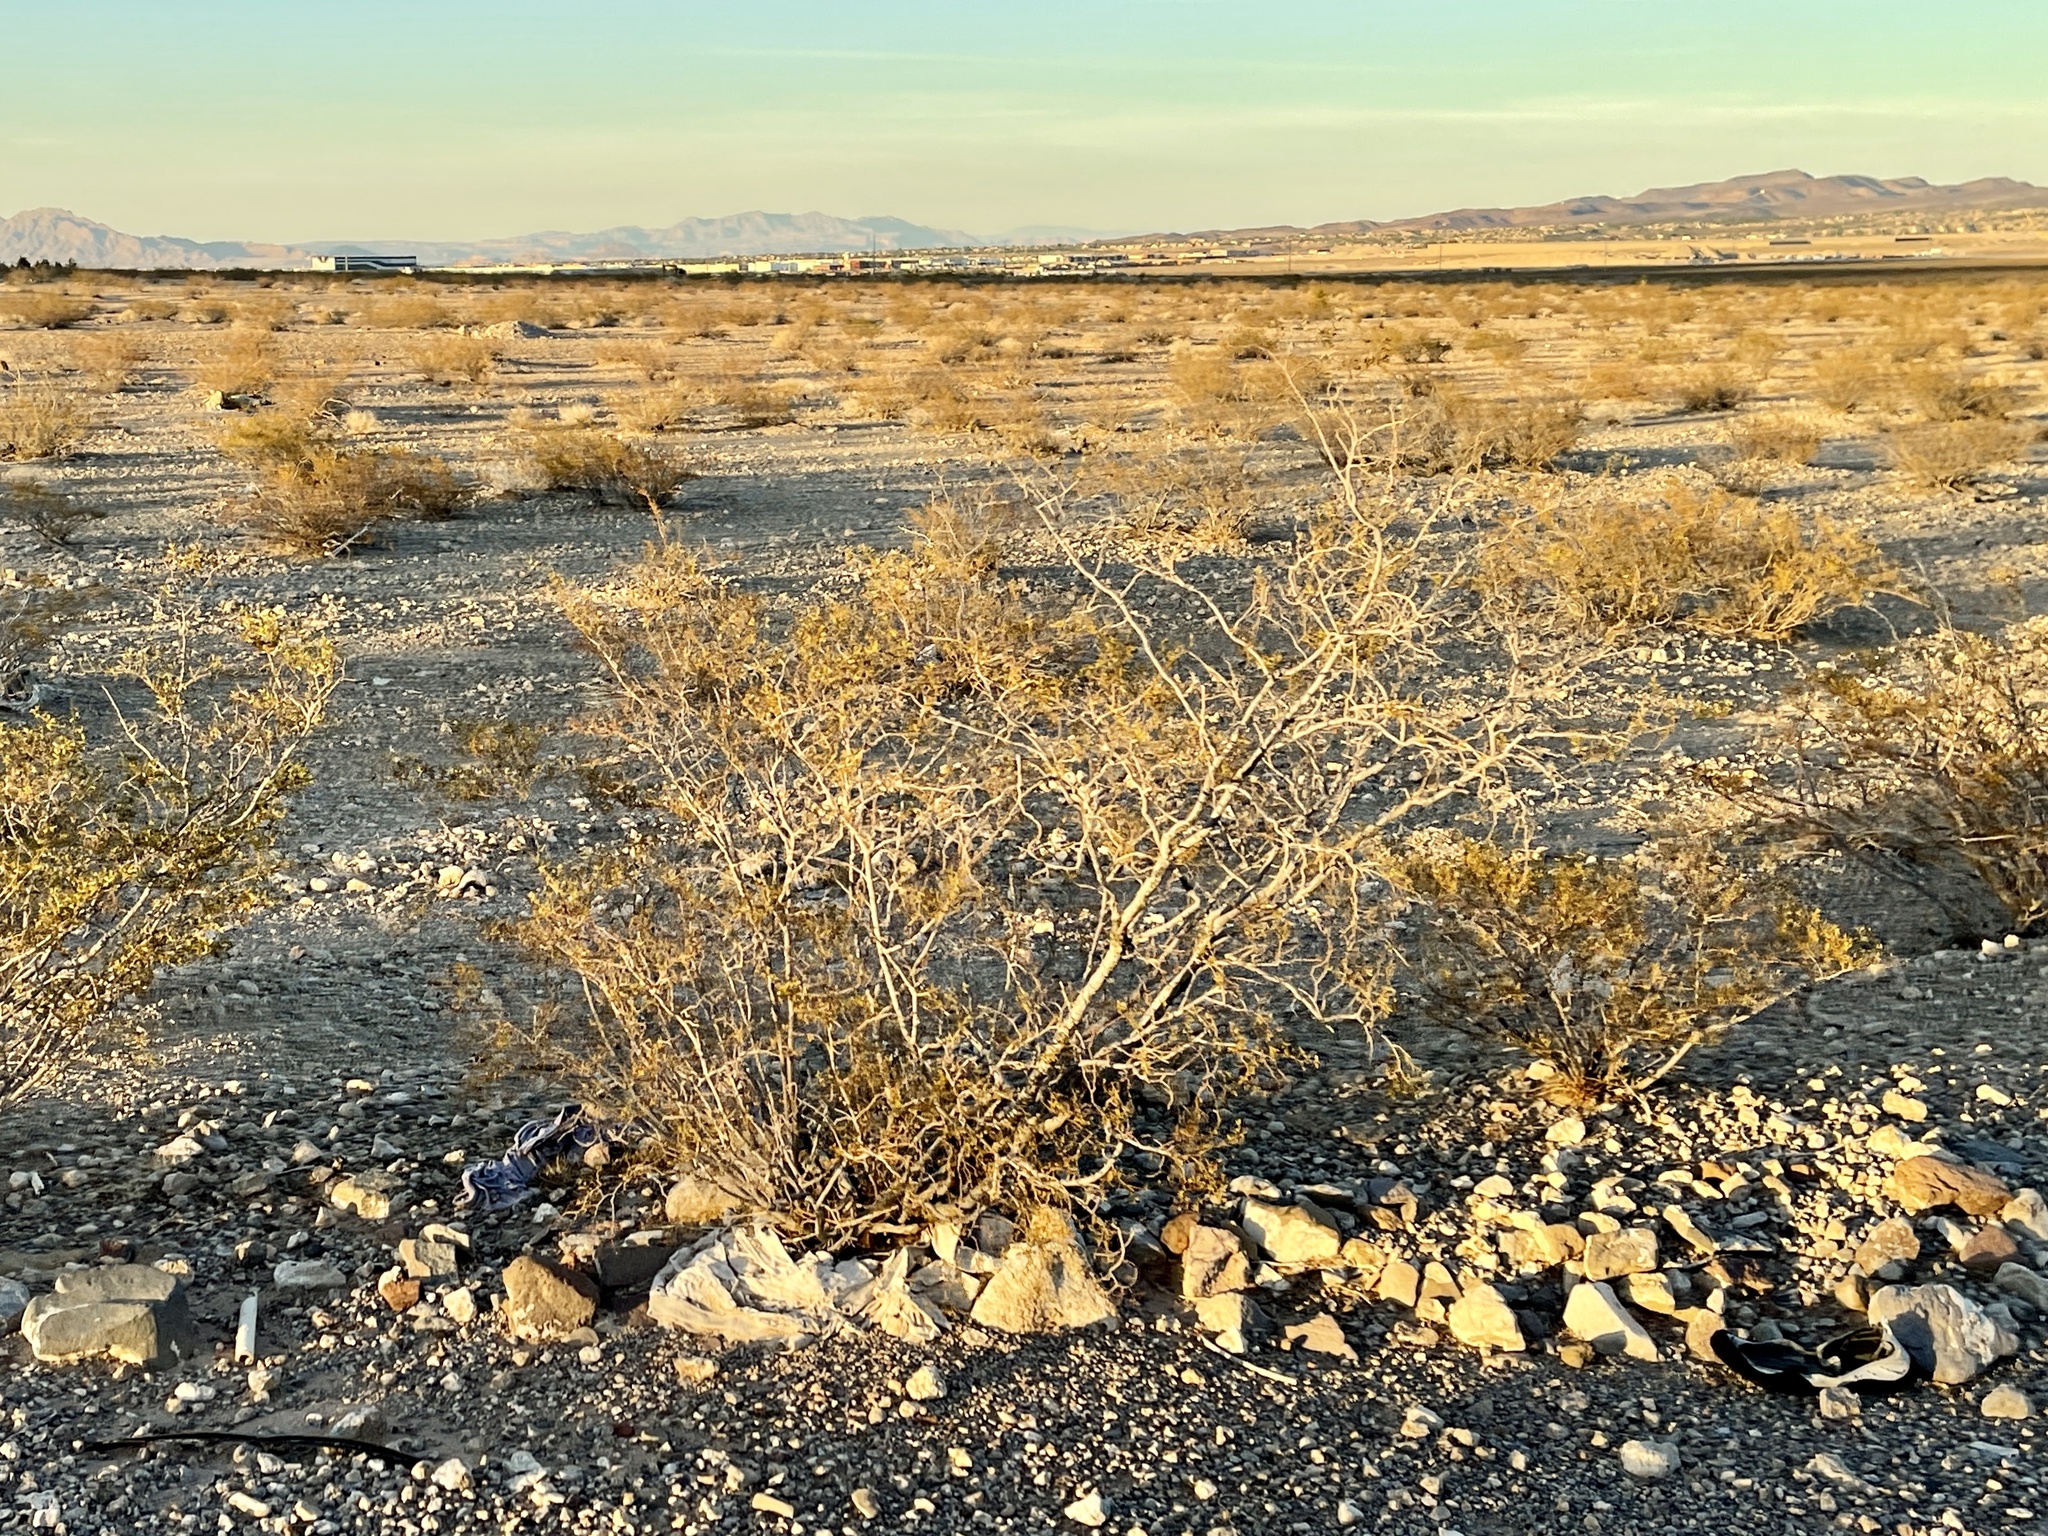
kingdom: Plantae
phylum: Tracheophyta
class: Magnoliopsida
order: Zygophyllales
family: Zygophyllaceae
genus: Larrea
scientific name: Larrea tridentata
